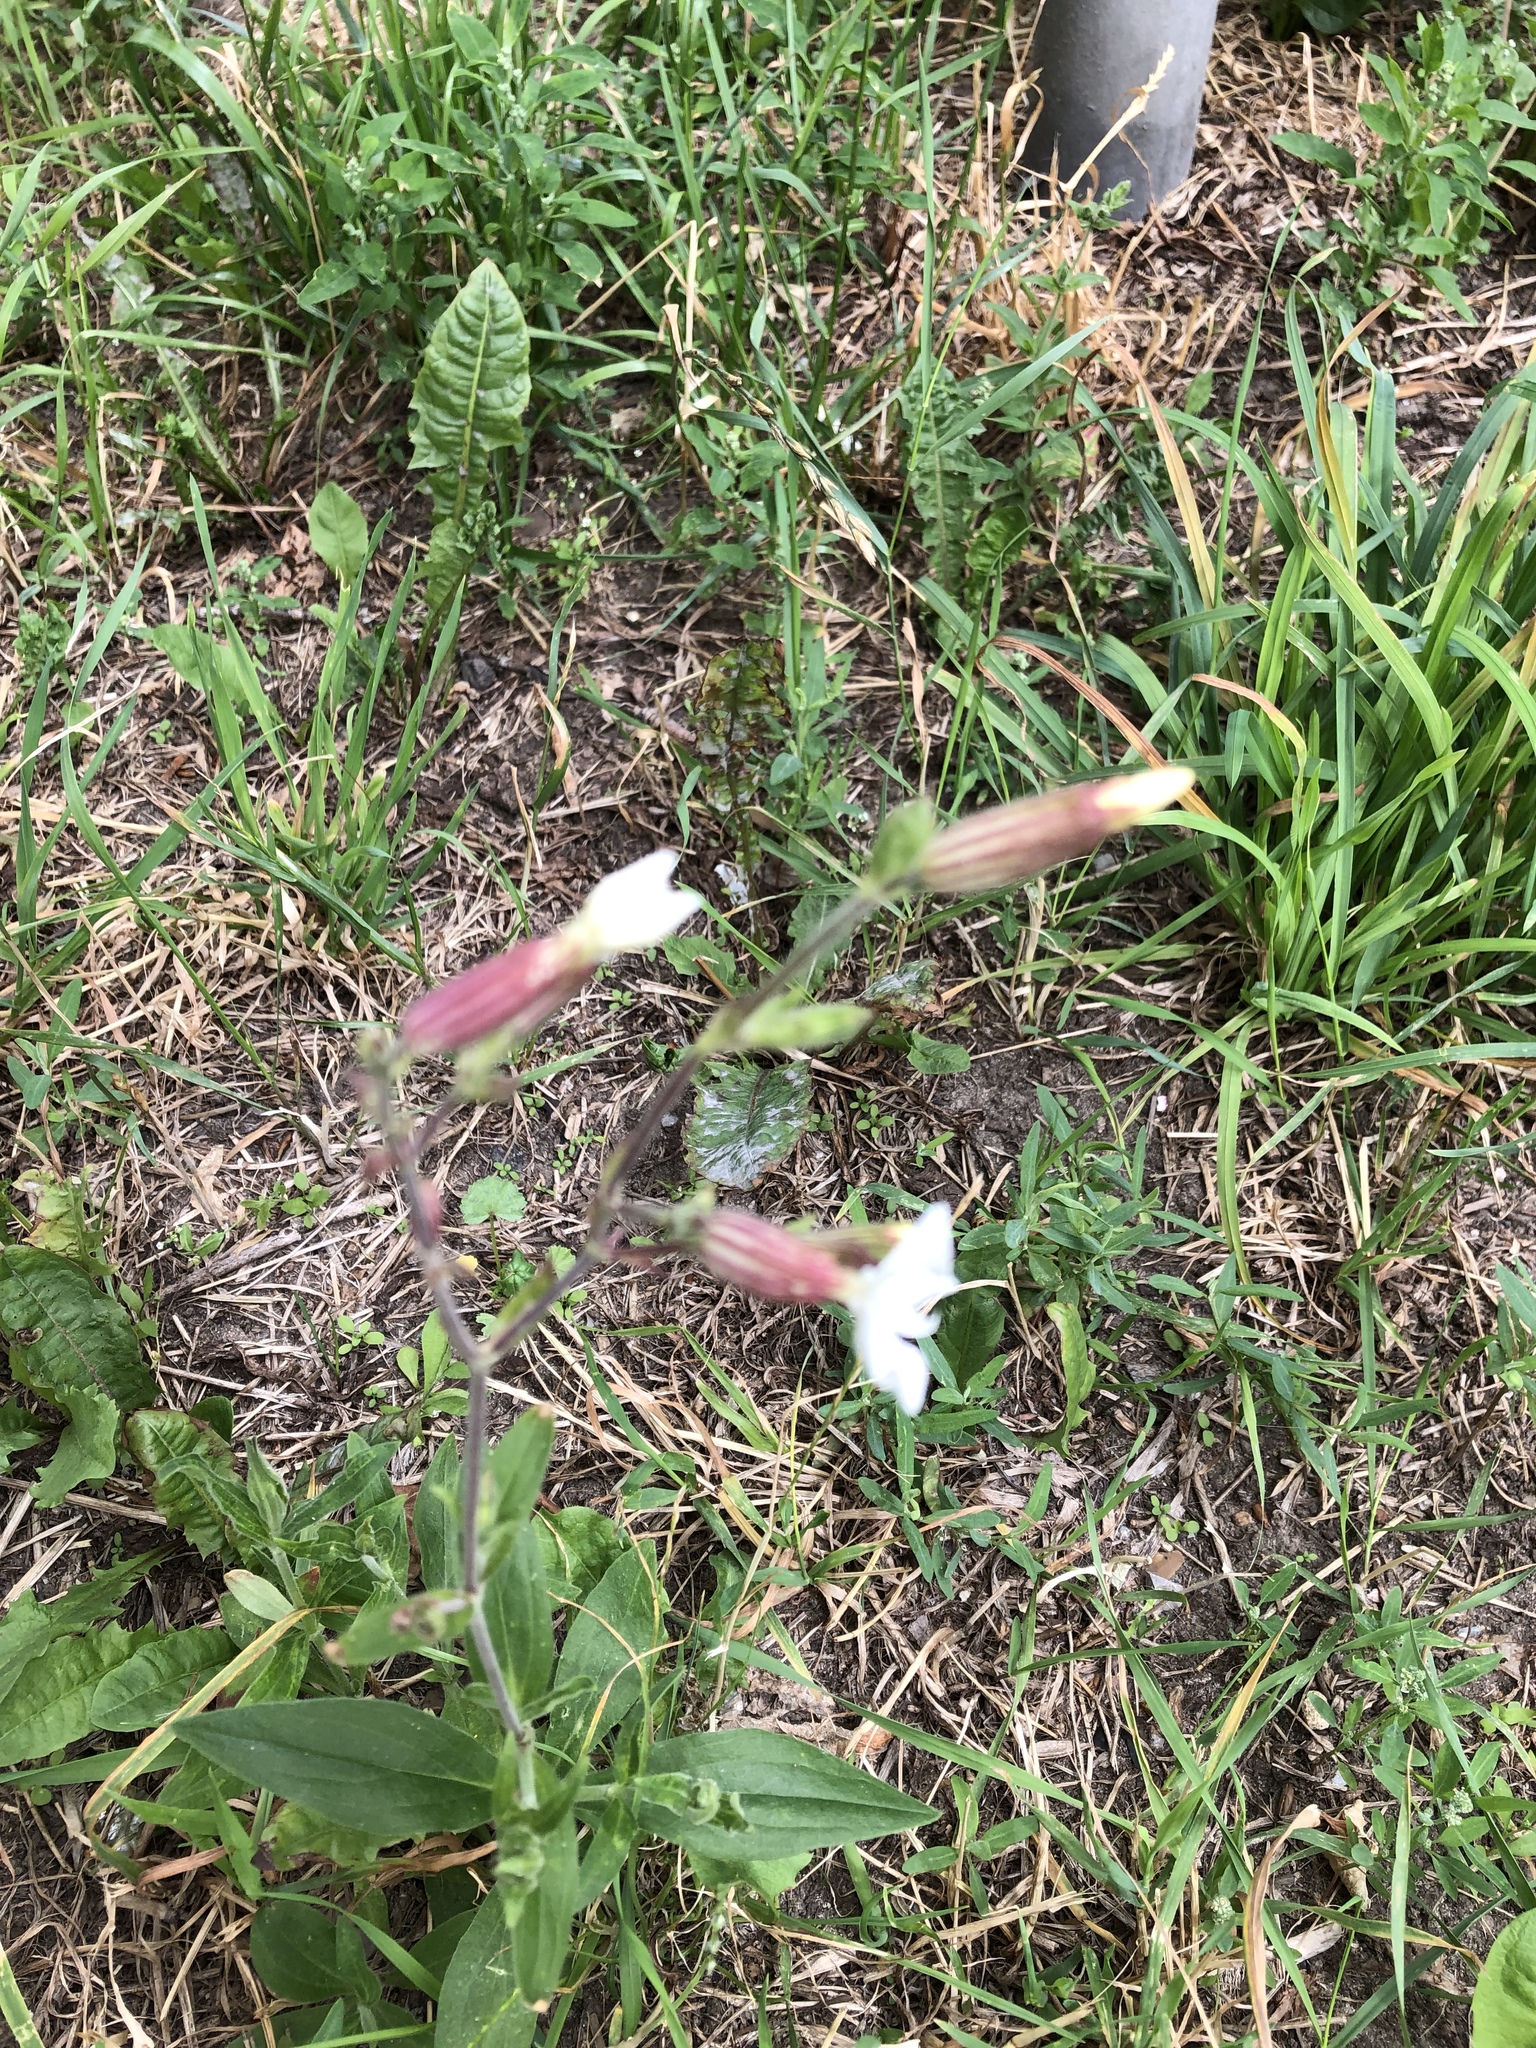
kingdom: Plantae
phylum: Tracheophyta
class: Magnoliopsida
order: Caryophyllales
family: Caryophyllaceae
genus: Silene
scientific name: Silene latifolia
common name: White campion
